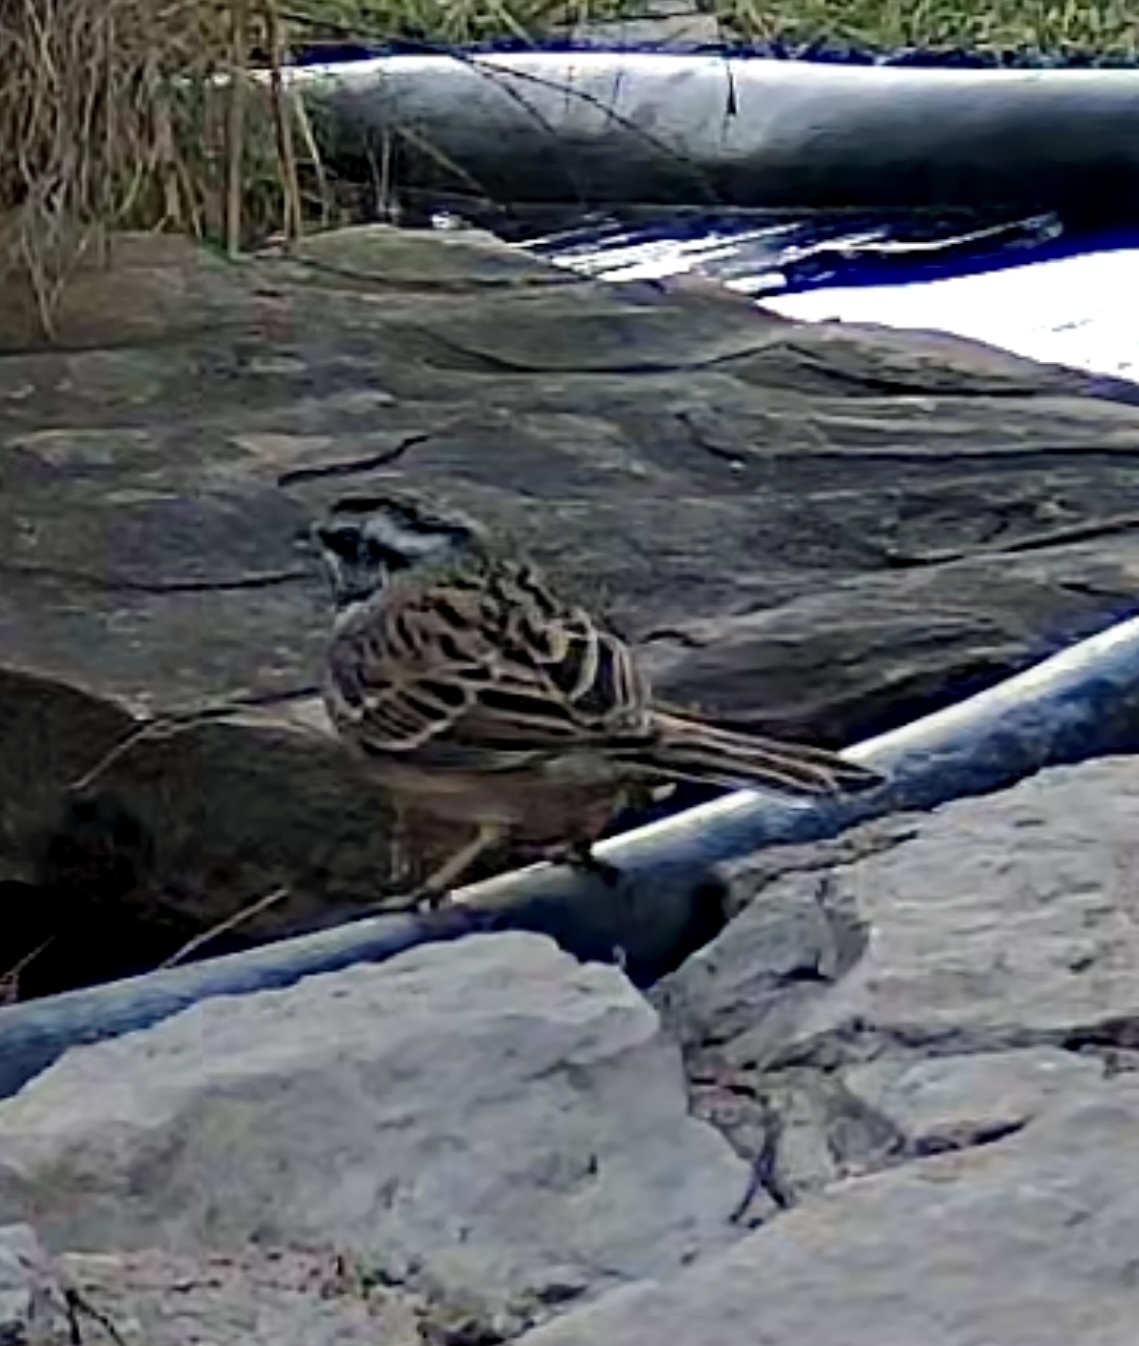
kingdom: Animalia
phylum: Chordata
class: Aves
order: Passeriformes
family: Emberizidae
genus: Emberiza
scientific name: Emberiza cia
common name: Rock bunting
